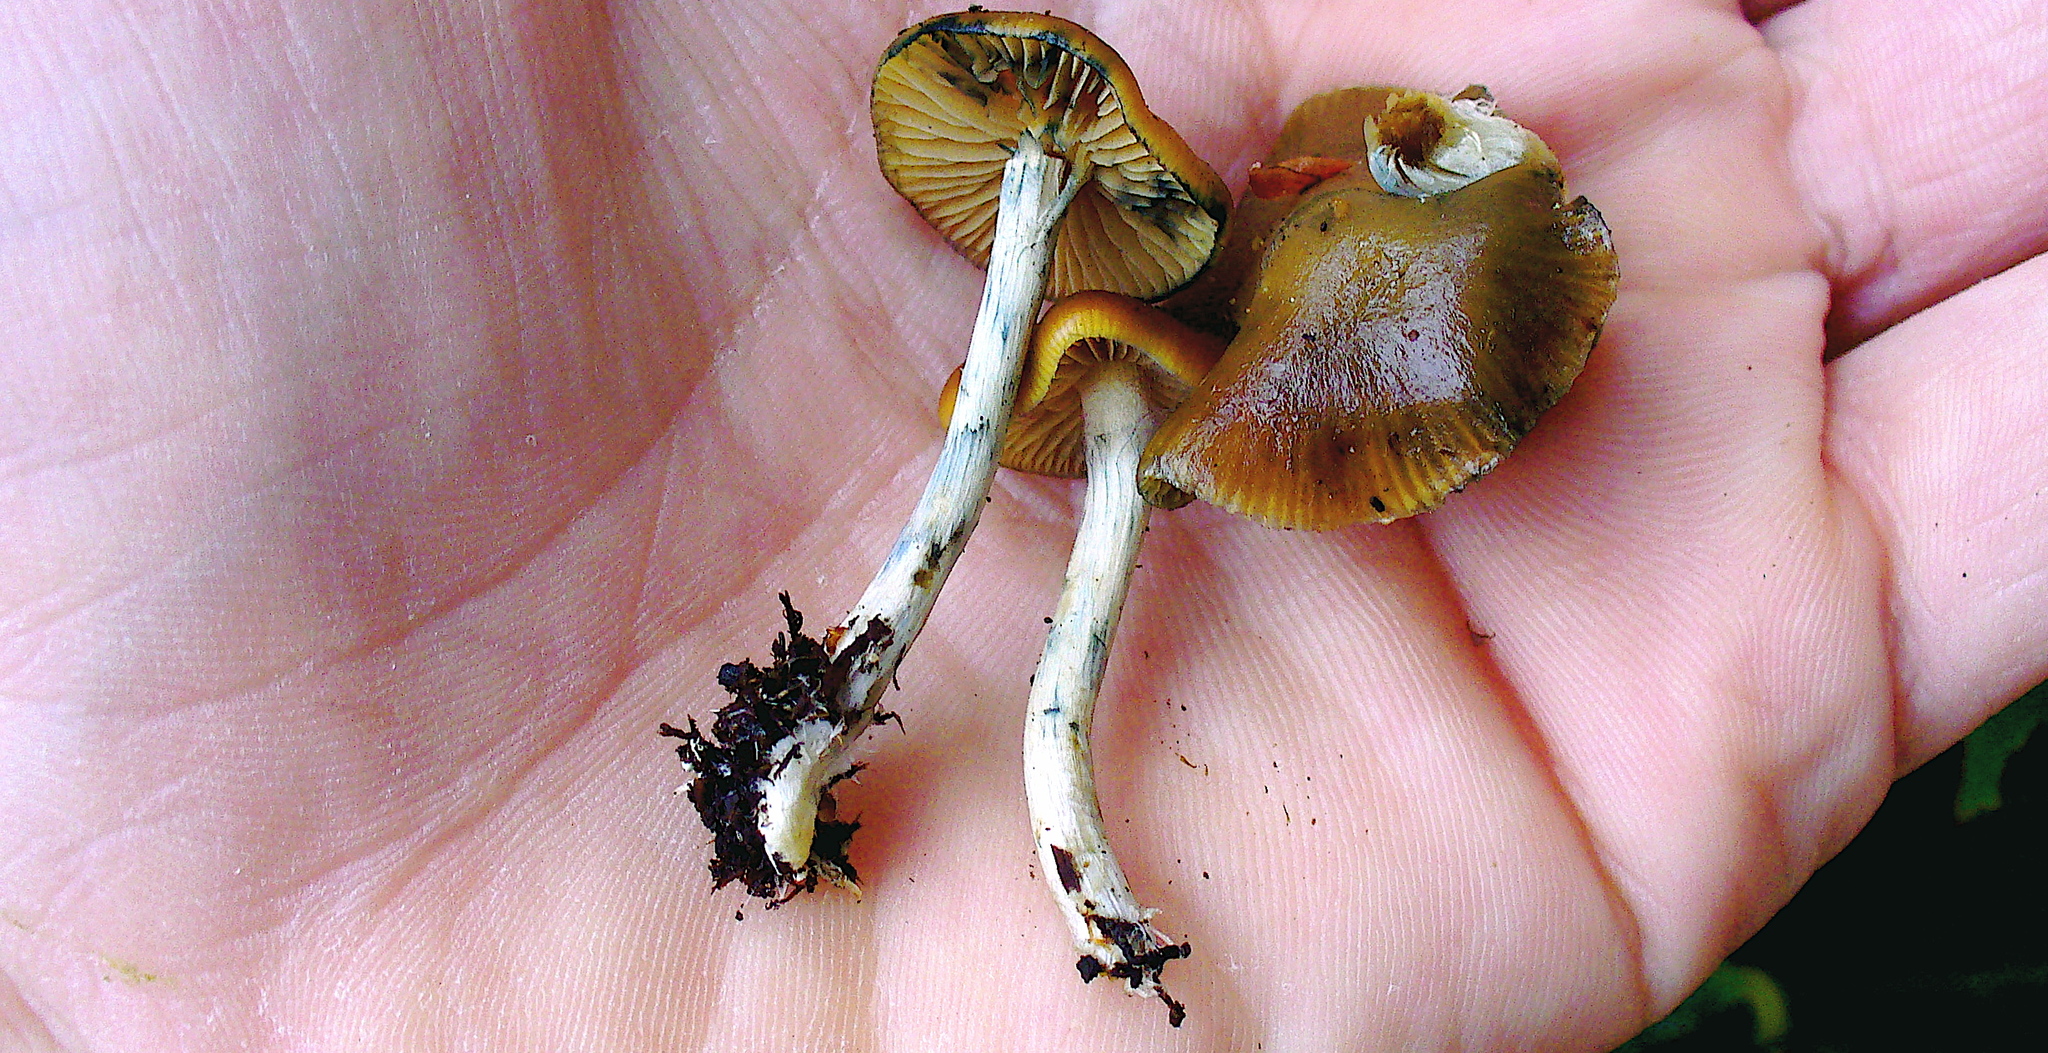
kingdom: Fungi
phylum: Basidiomycota
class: Agaricomycetes
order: Agaricales
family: Hymenogastraceae
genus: Psilocybe
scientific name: Psilocybe cyanescens
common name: Blueleg brownie
